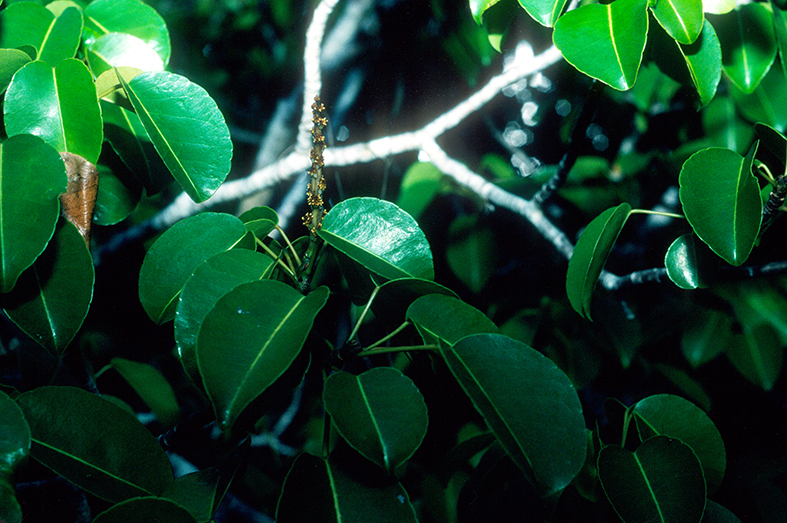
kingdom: Plantae
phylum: Tracheophyta
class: Magnoliopsida
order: Malpighiales
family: Euphorbiaceae
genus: Hippomane
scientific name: Hippomane mancinella
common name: Manchineel
